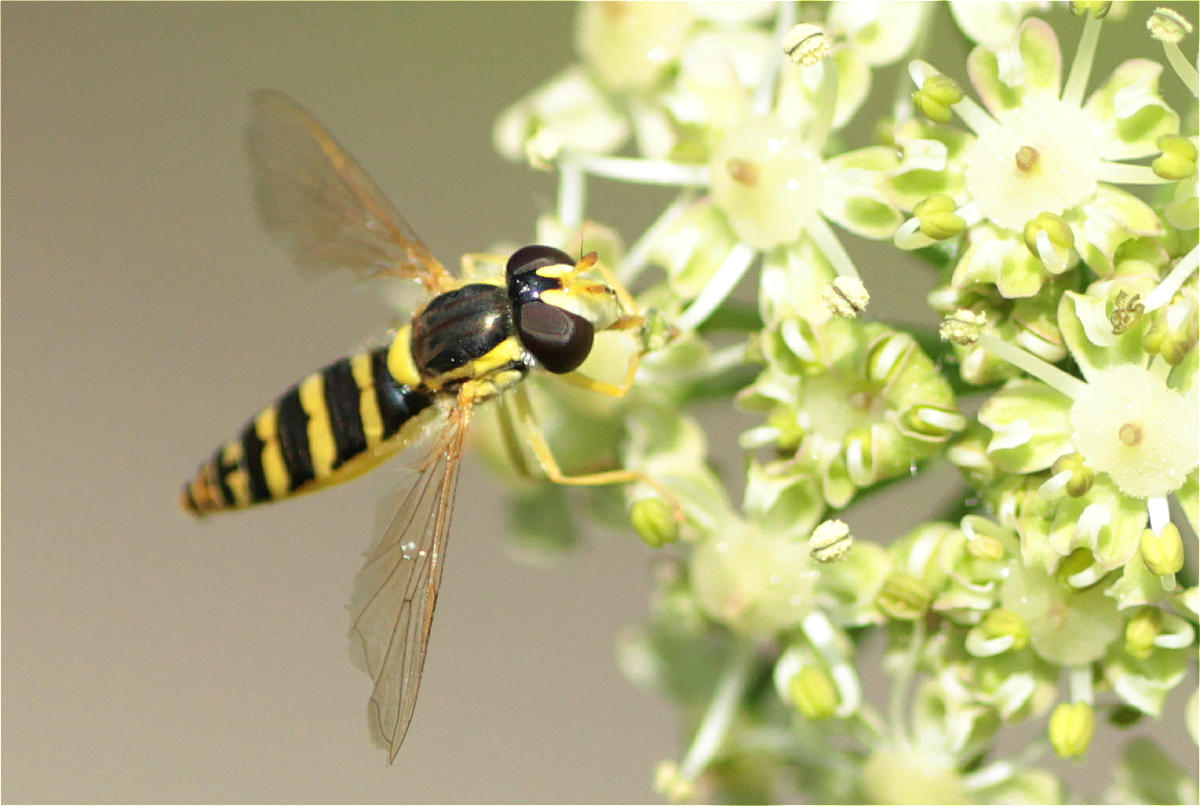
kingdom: Animalia
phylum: Arthropoda
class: Insecta
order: Diptera
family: Syrphidae
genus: Sphaerophoria
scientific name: Sphaerophoria
